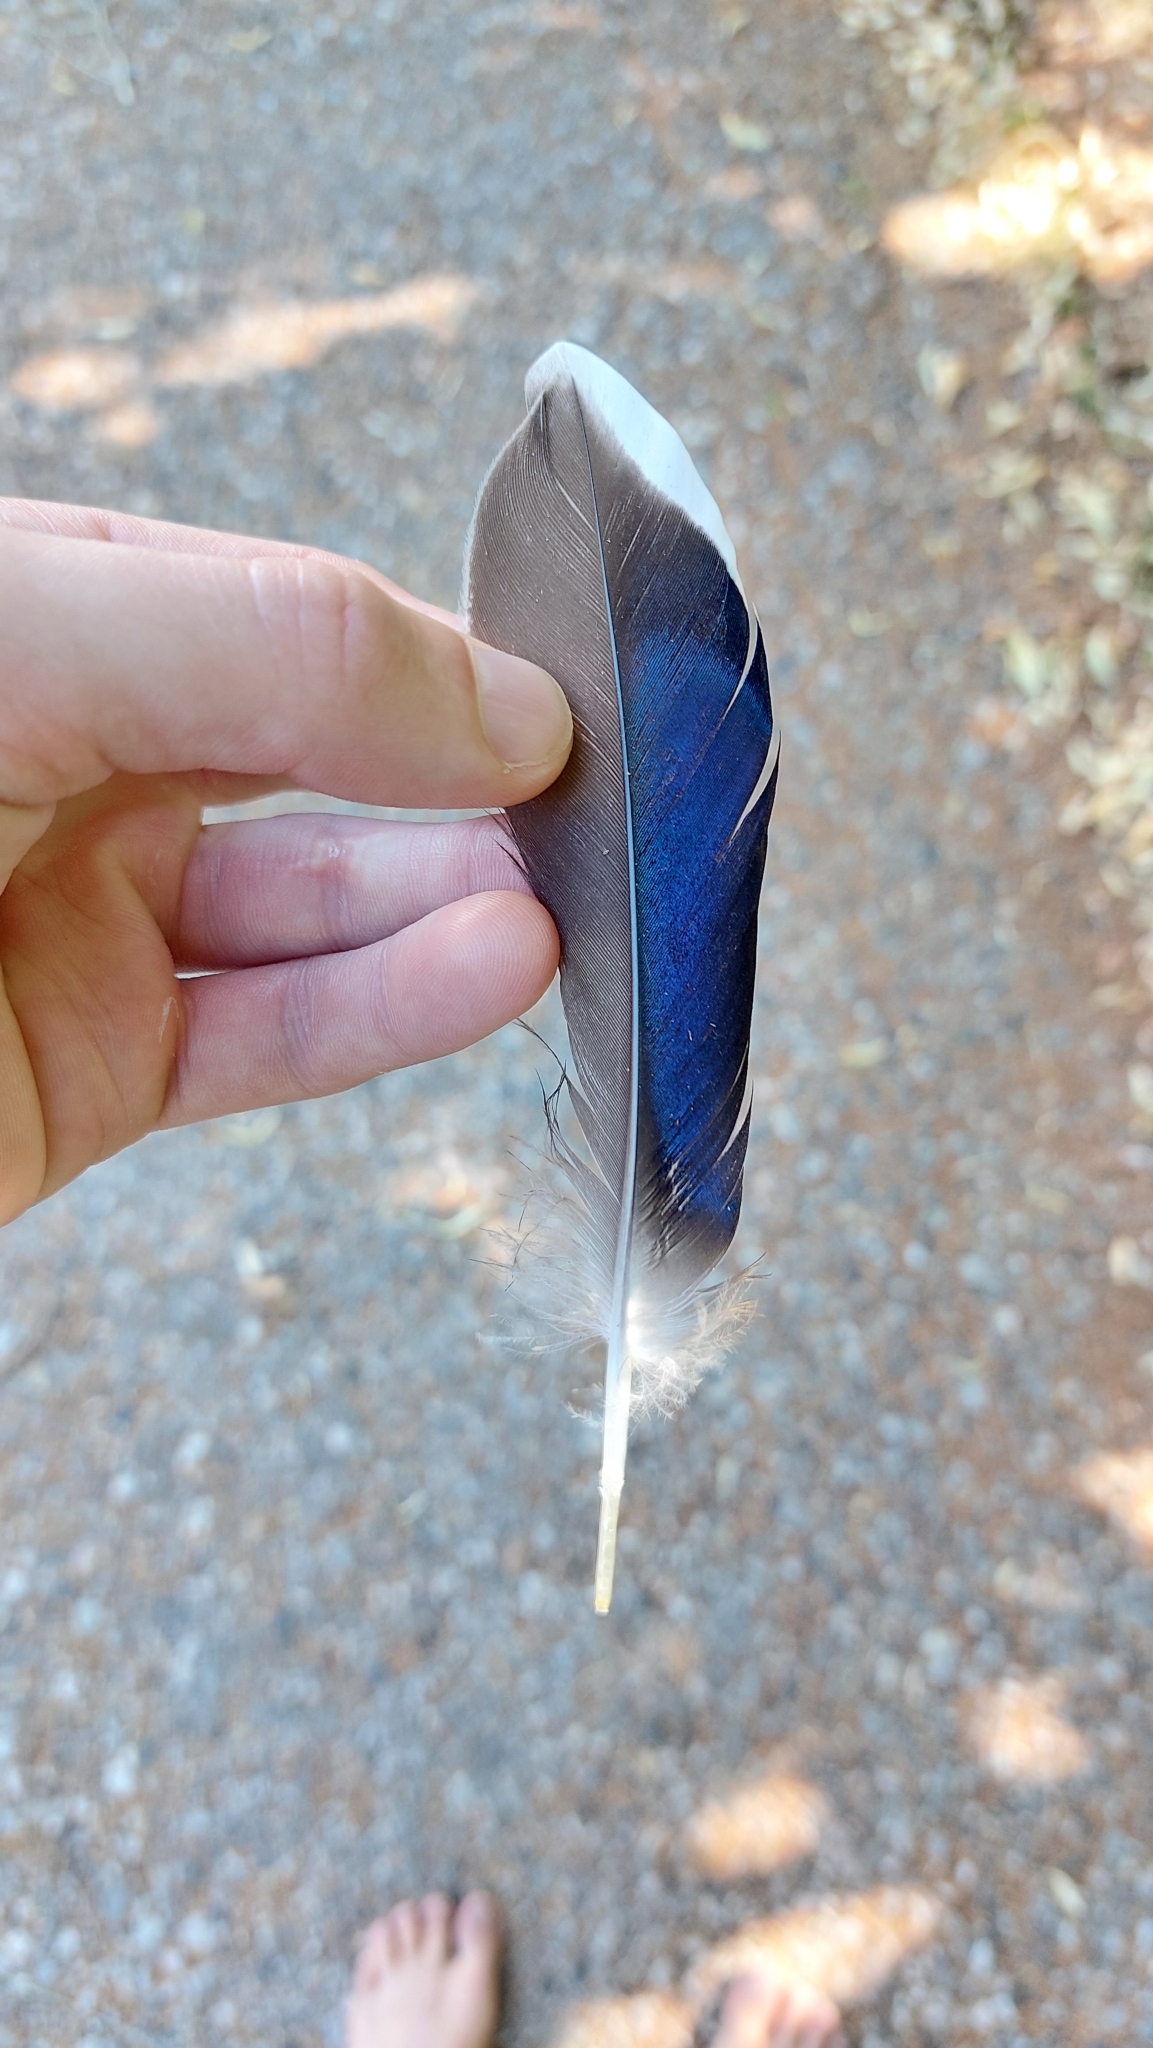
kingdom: Animalia
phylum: Chordata
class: Aves
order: Anseriformes
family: Anatidae
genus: Anas
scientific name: Anas platyrhynchos
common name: Mallard
